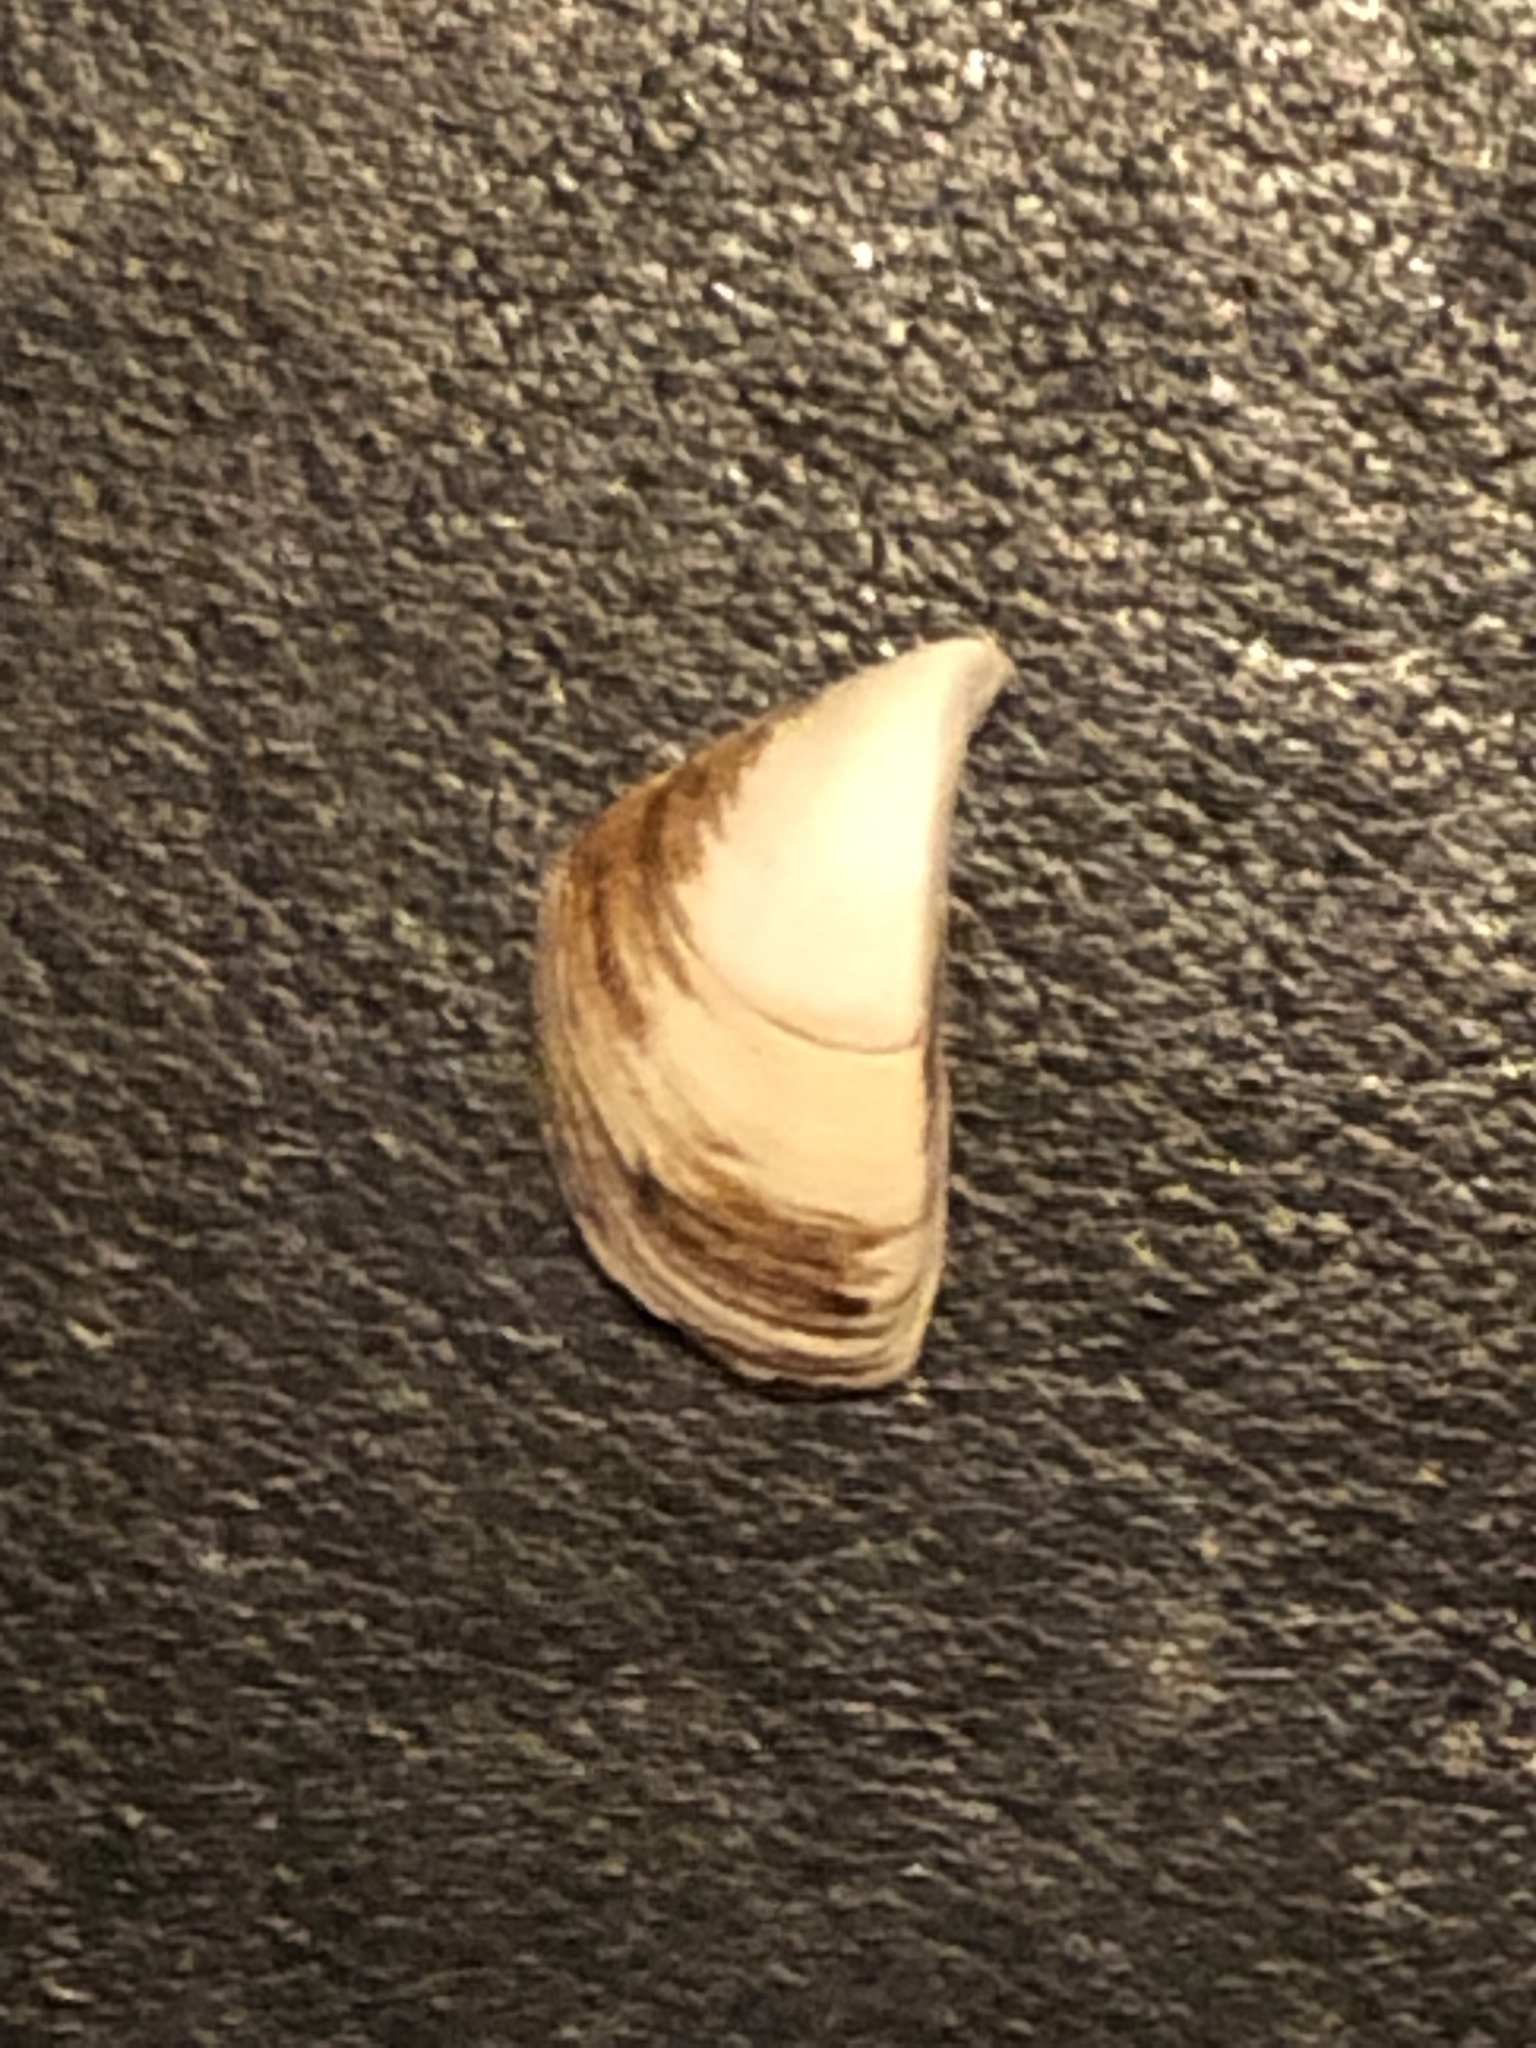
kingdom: Animalia
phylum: Mollusca
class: Bivalvia
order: Myida
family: Dreissenidae
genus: Dreissena
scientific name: Dreissena polymorpha
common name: Zebra mussel
